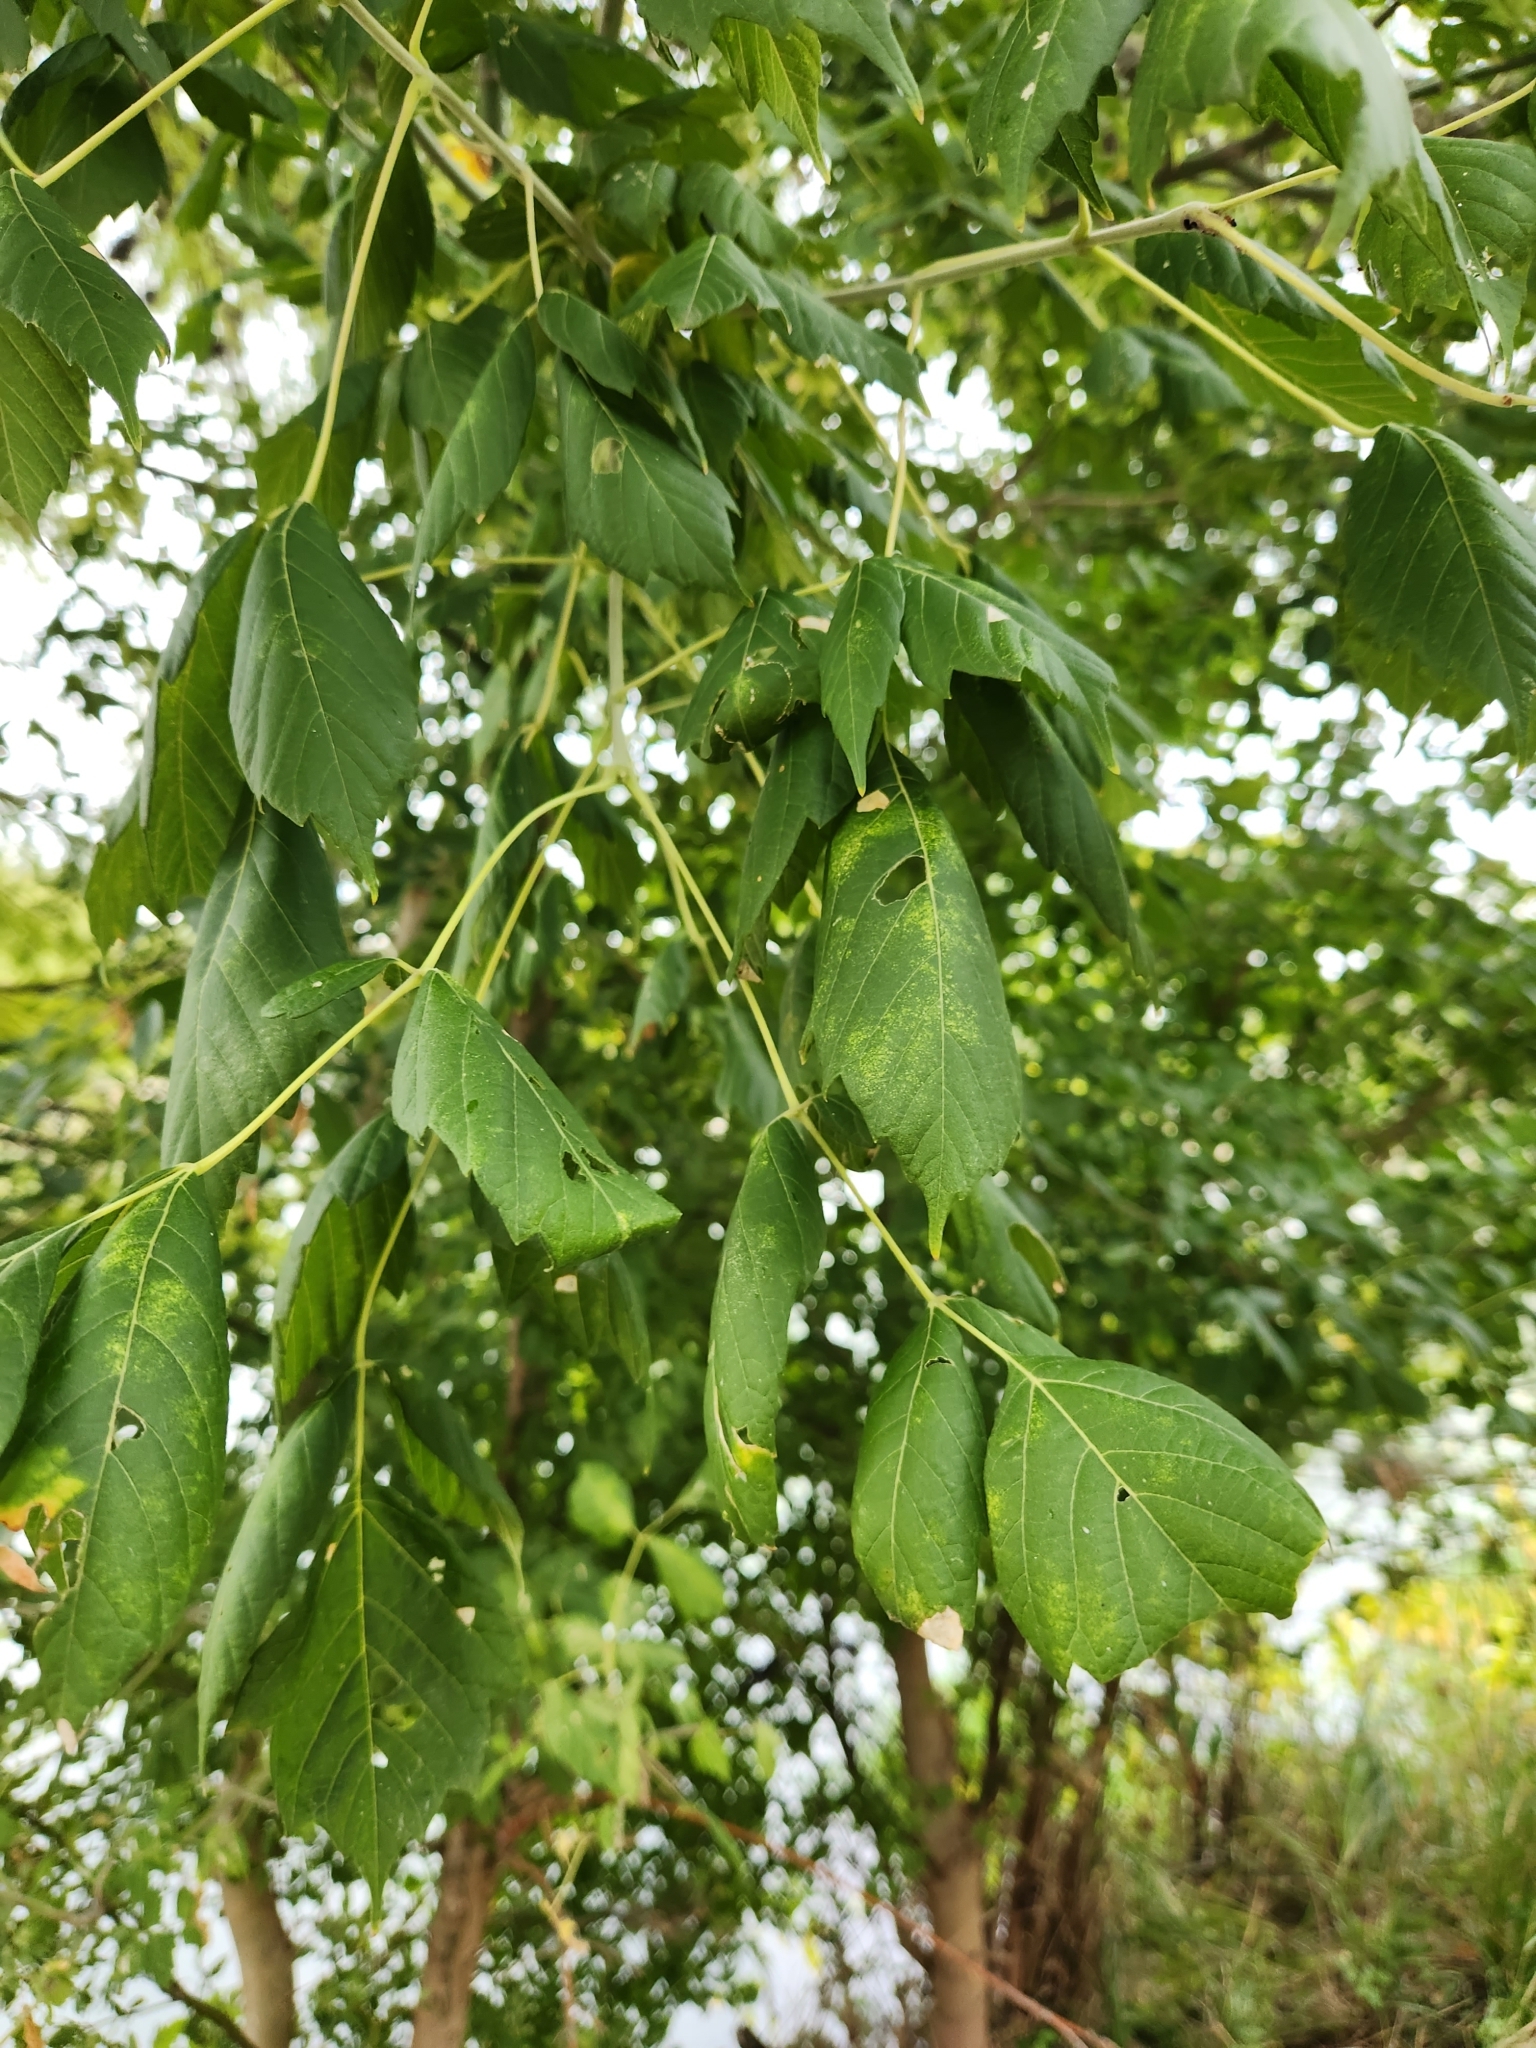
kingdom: Plantae
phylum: Tracheophyta
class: Magnoliopsida
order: Sapindales
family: Sapindaceae
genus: Acer
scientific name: Acer negundo
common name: Ashleaf maple
